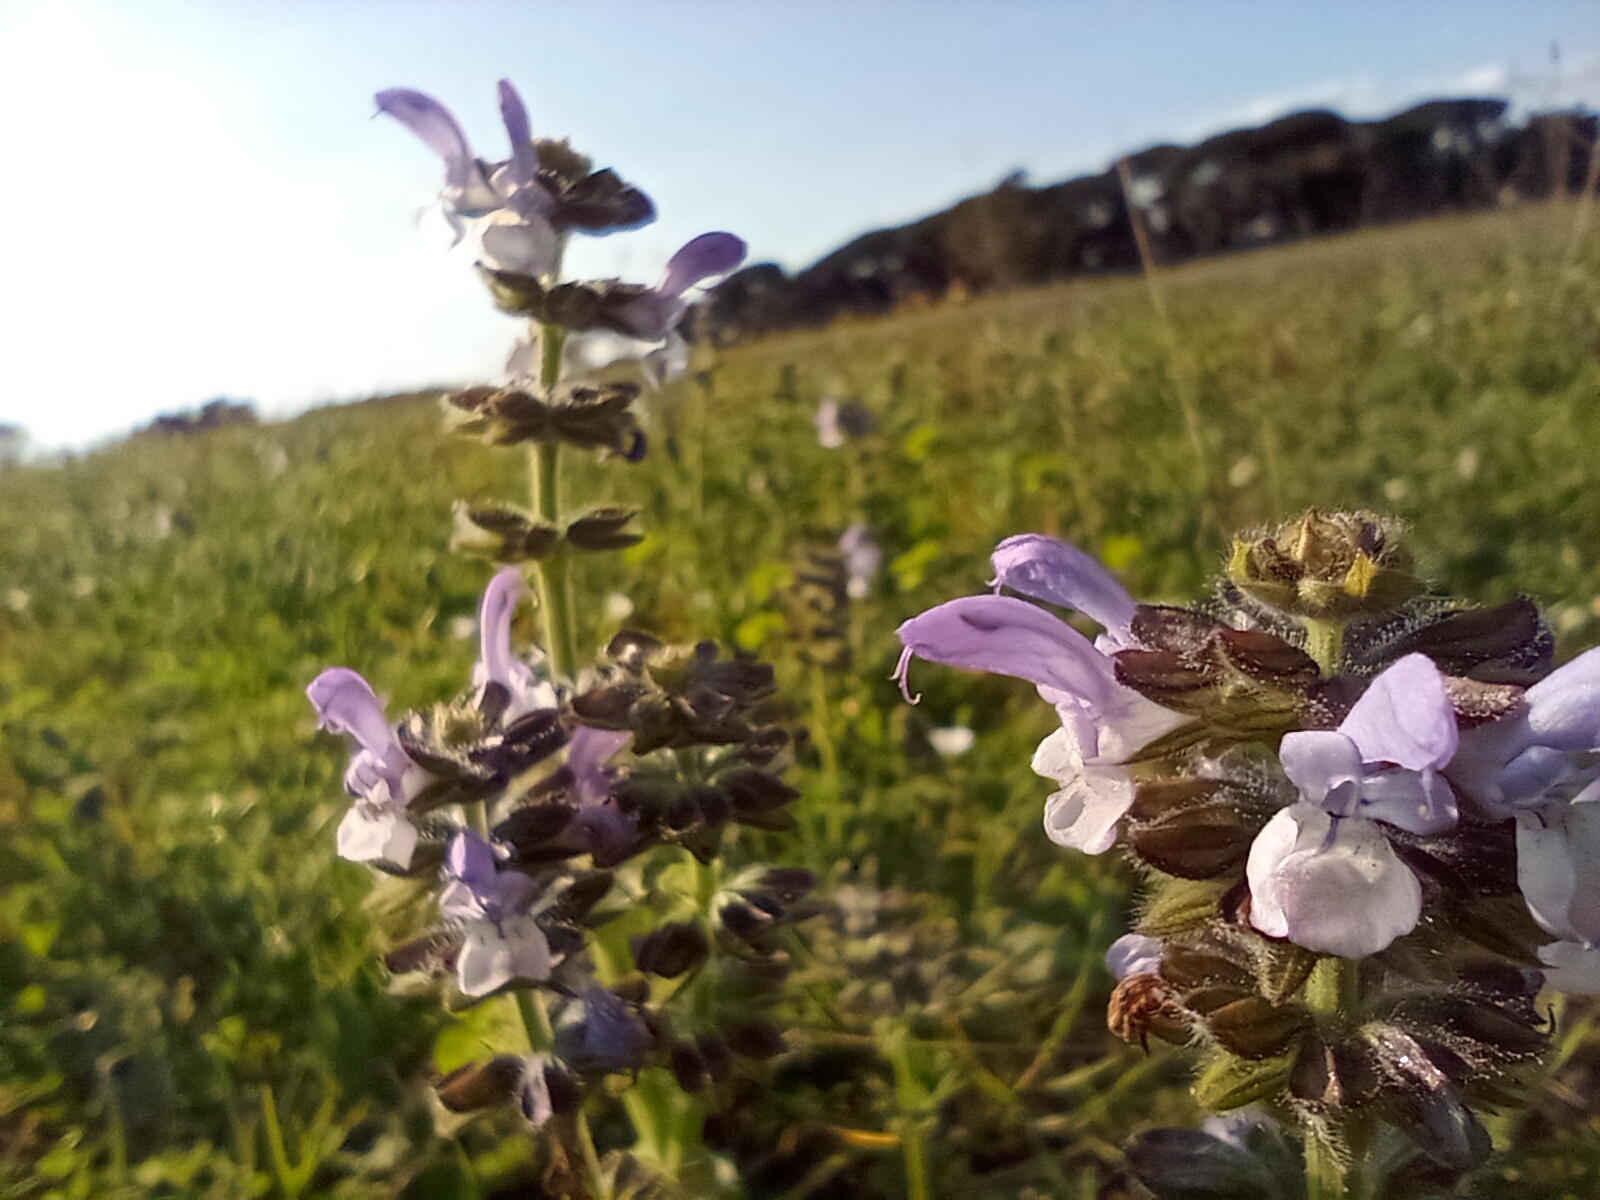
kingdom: Plantae
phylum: Tracheophyta
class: Magnoliopsida
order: Lamiales
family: Lamiaceae
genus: Salvia
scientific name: Salvia clandestina
